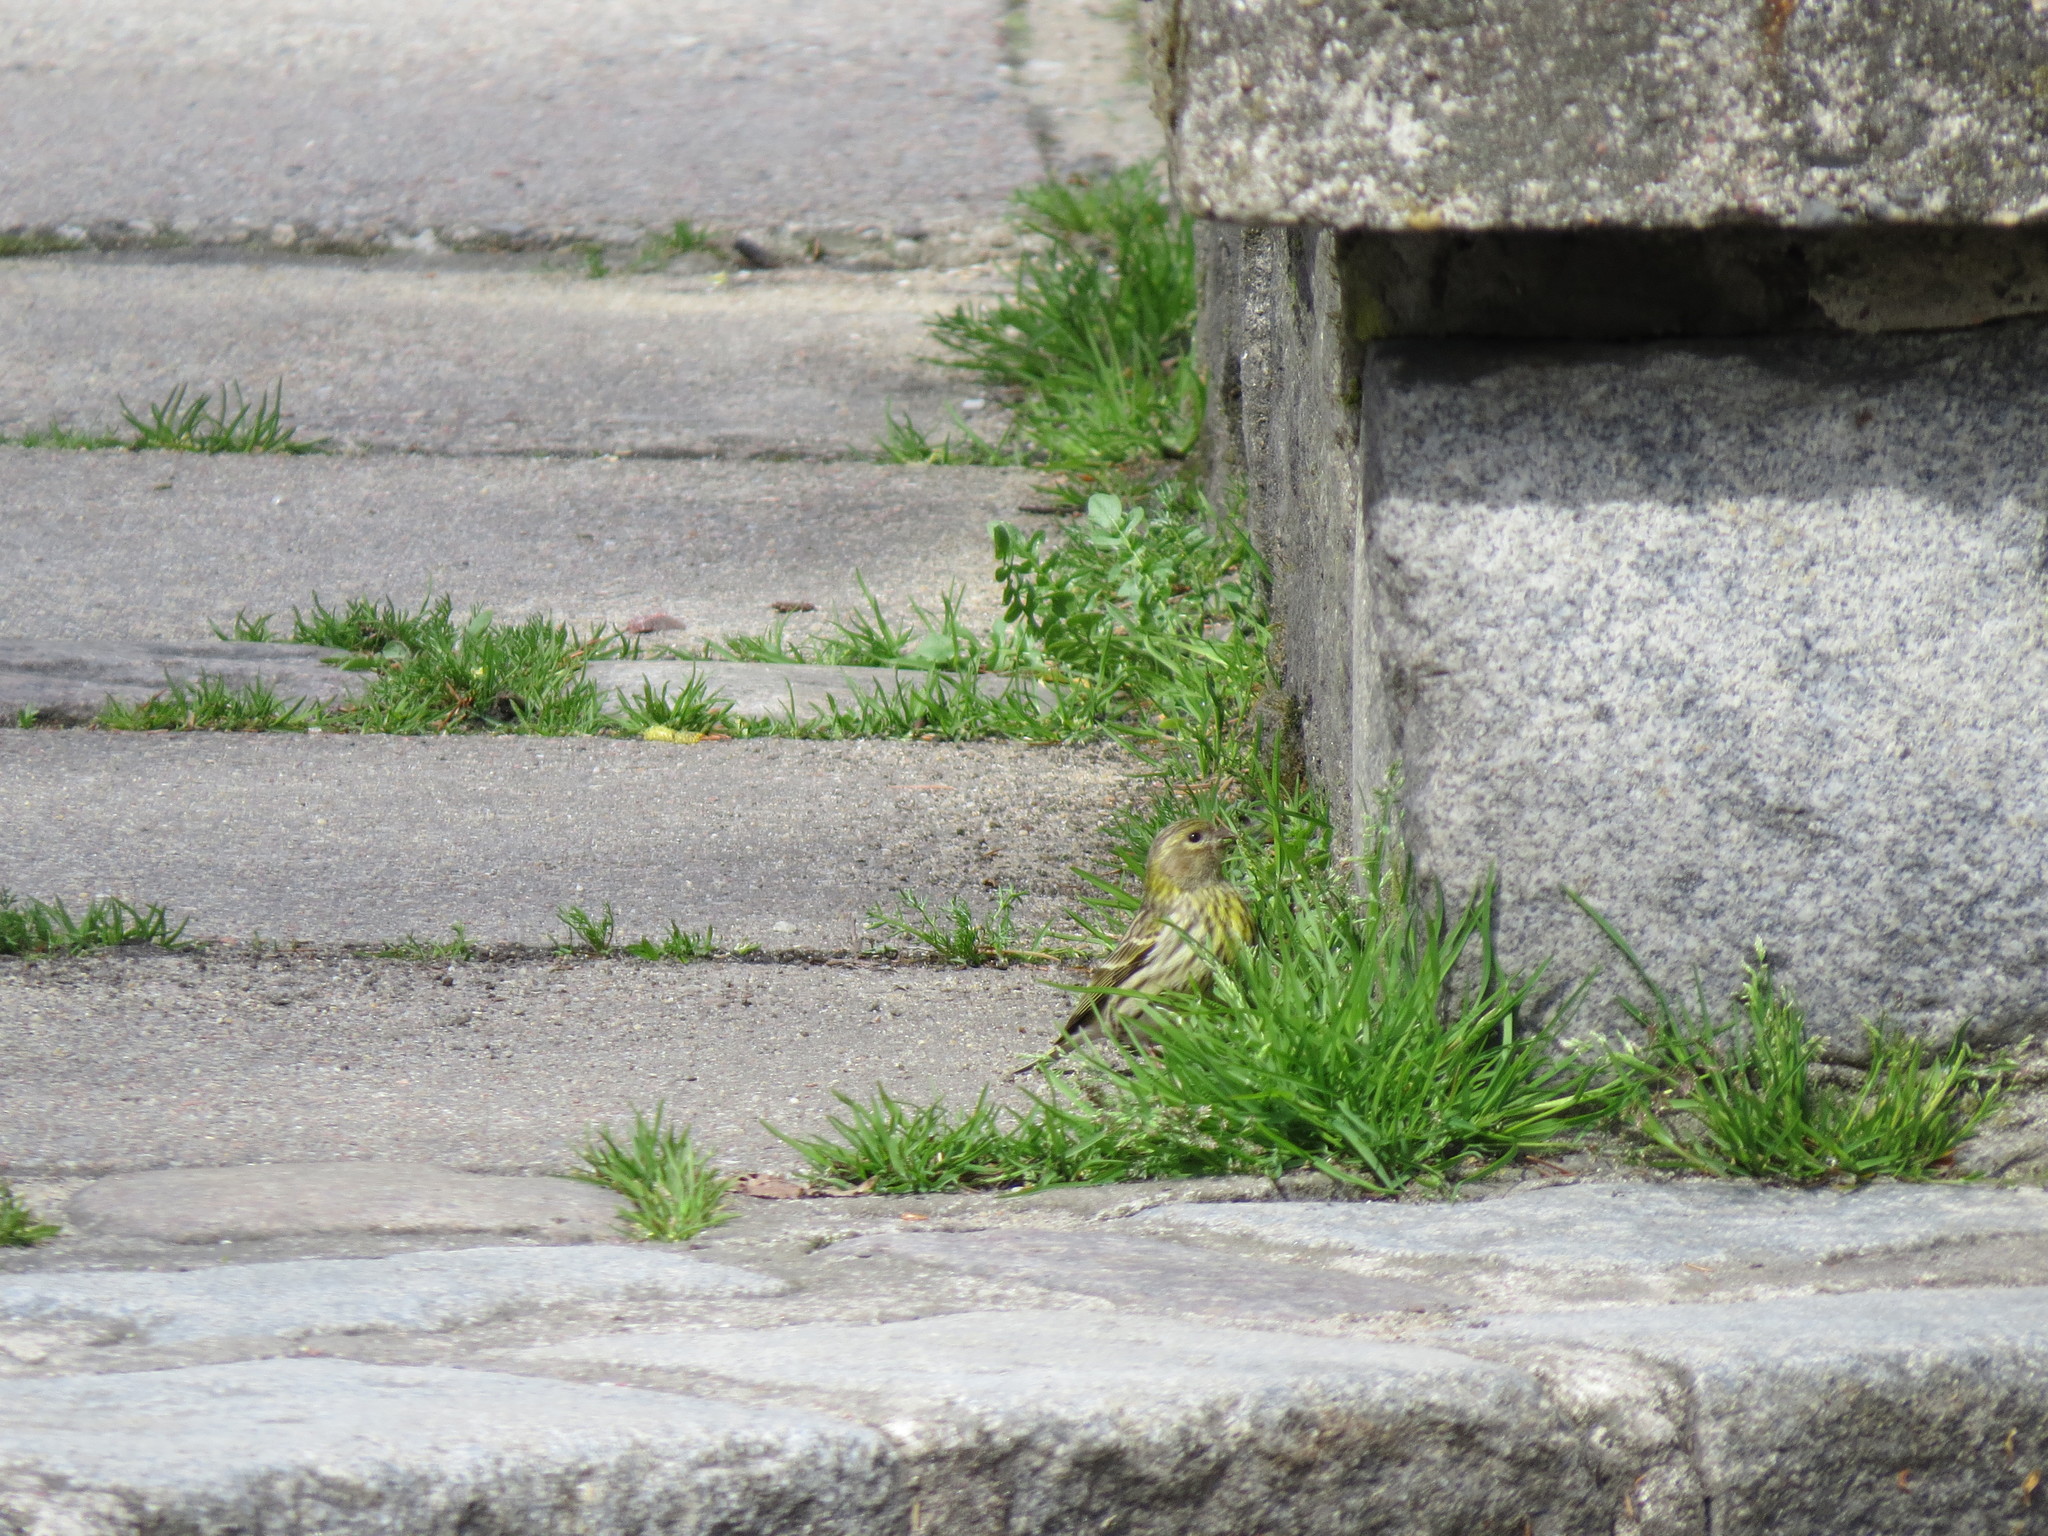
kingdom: Animalia
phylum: Chordata
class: Aves
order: Passeriformes
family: Fringillidae
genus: Serinus
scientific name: Serinus serinus
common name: European serin
